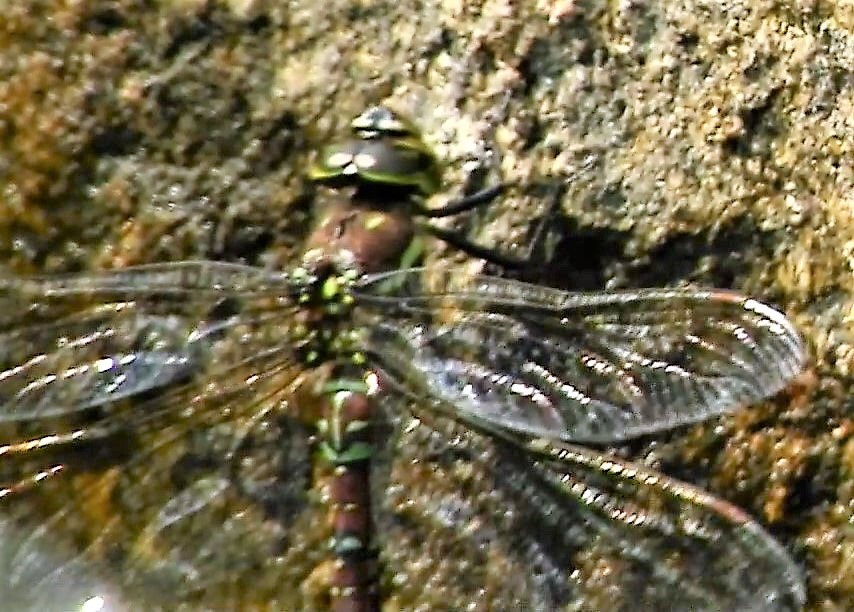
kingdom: Animalia
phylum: Arthropoda
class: Insecta
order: Odonata
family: Aeshnidae
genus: Aeshna
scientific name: Aeshna umbrosa
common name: Shadow darner
